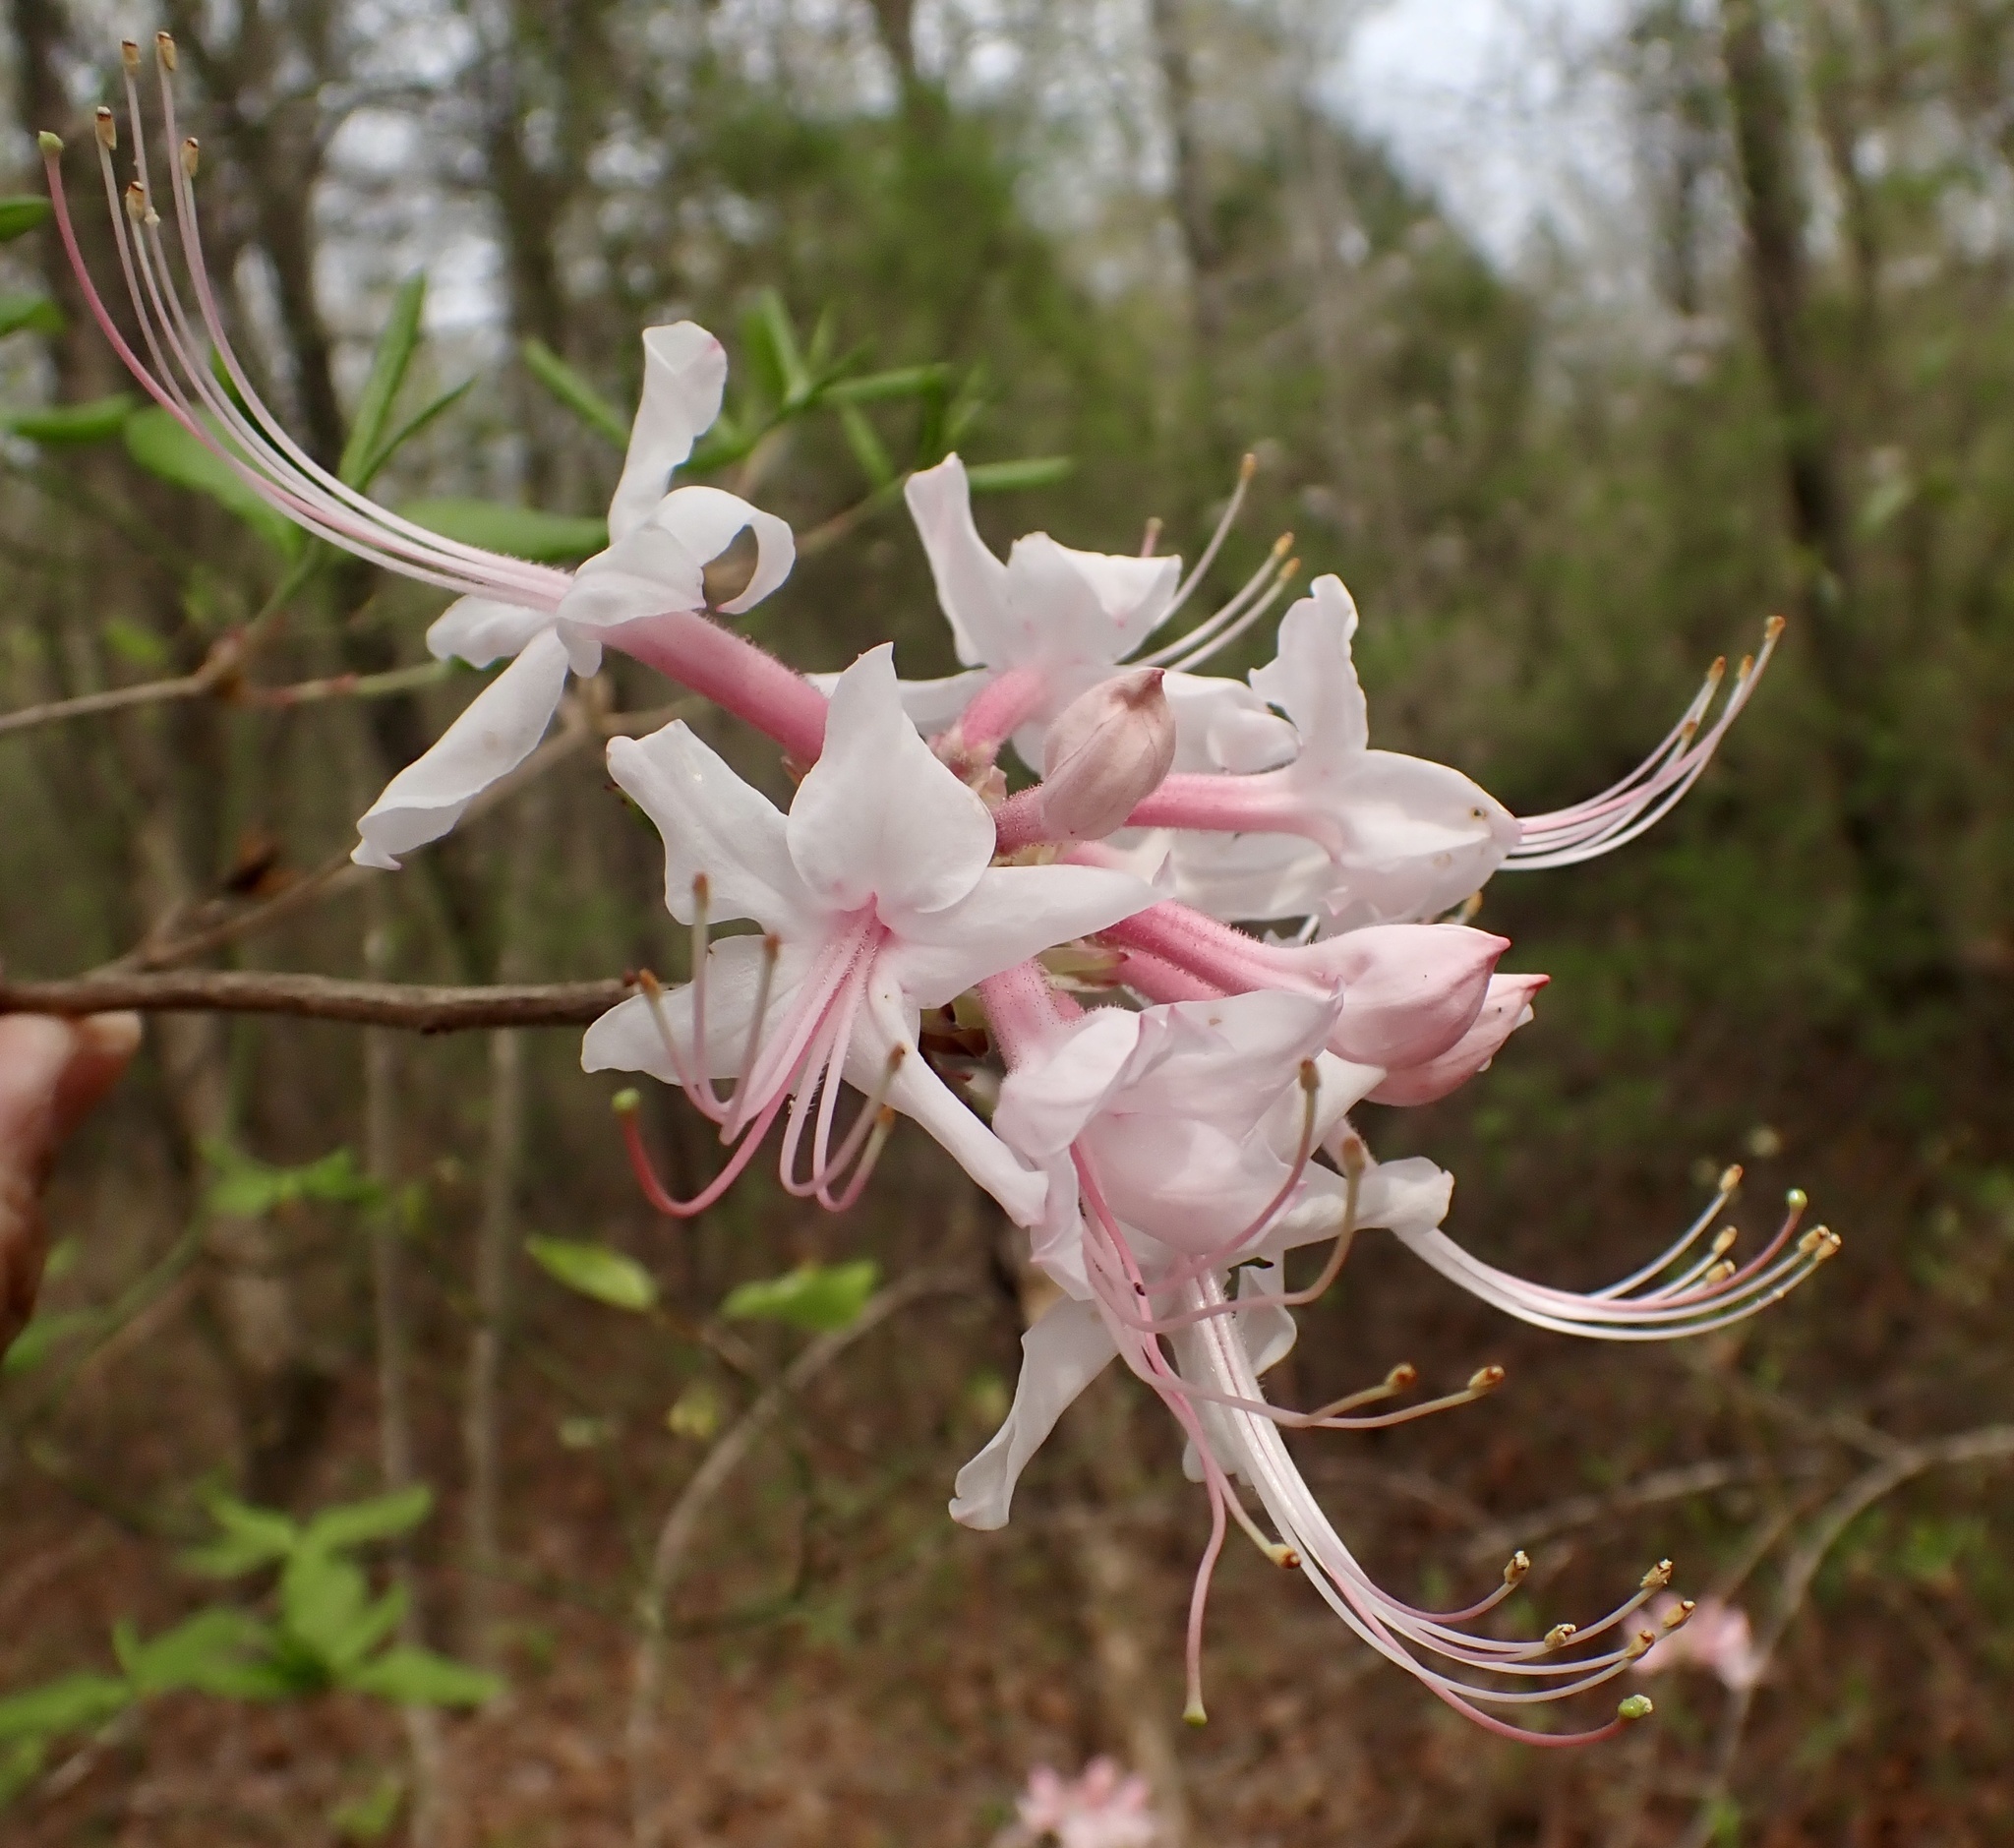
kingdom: Plantae
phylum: Tracheophyta
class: Magnoliopsida
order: Ericales
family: Ericaceae
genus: Rhododendron
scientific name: Rhododendron canescens
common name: Mountain azalea
